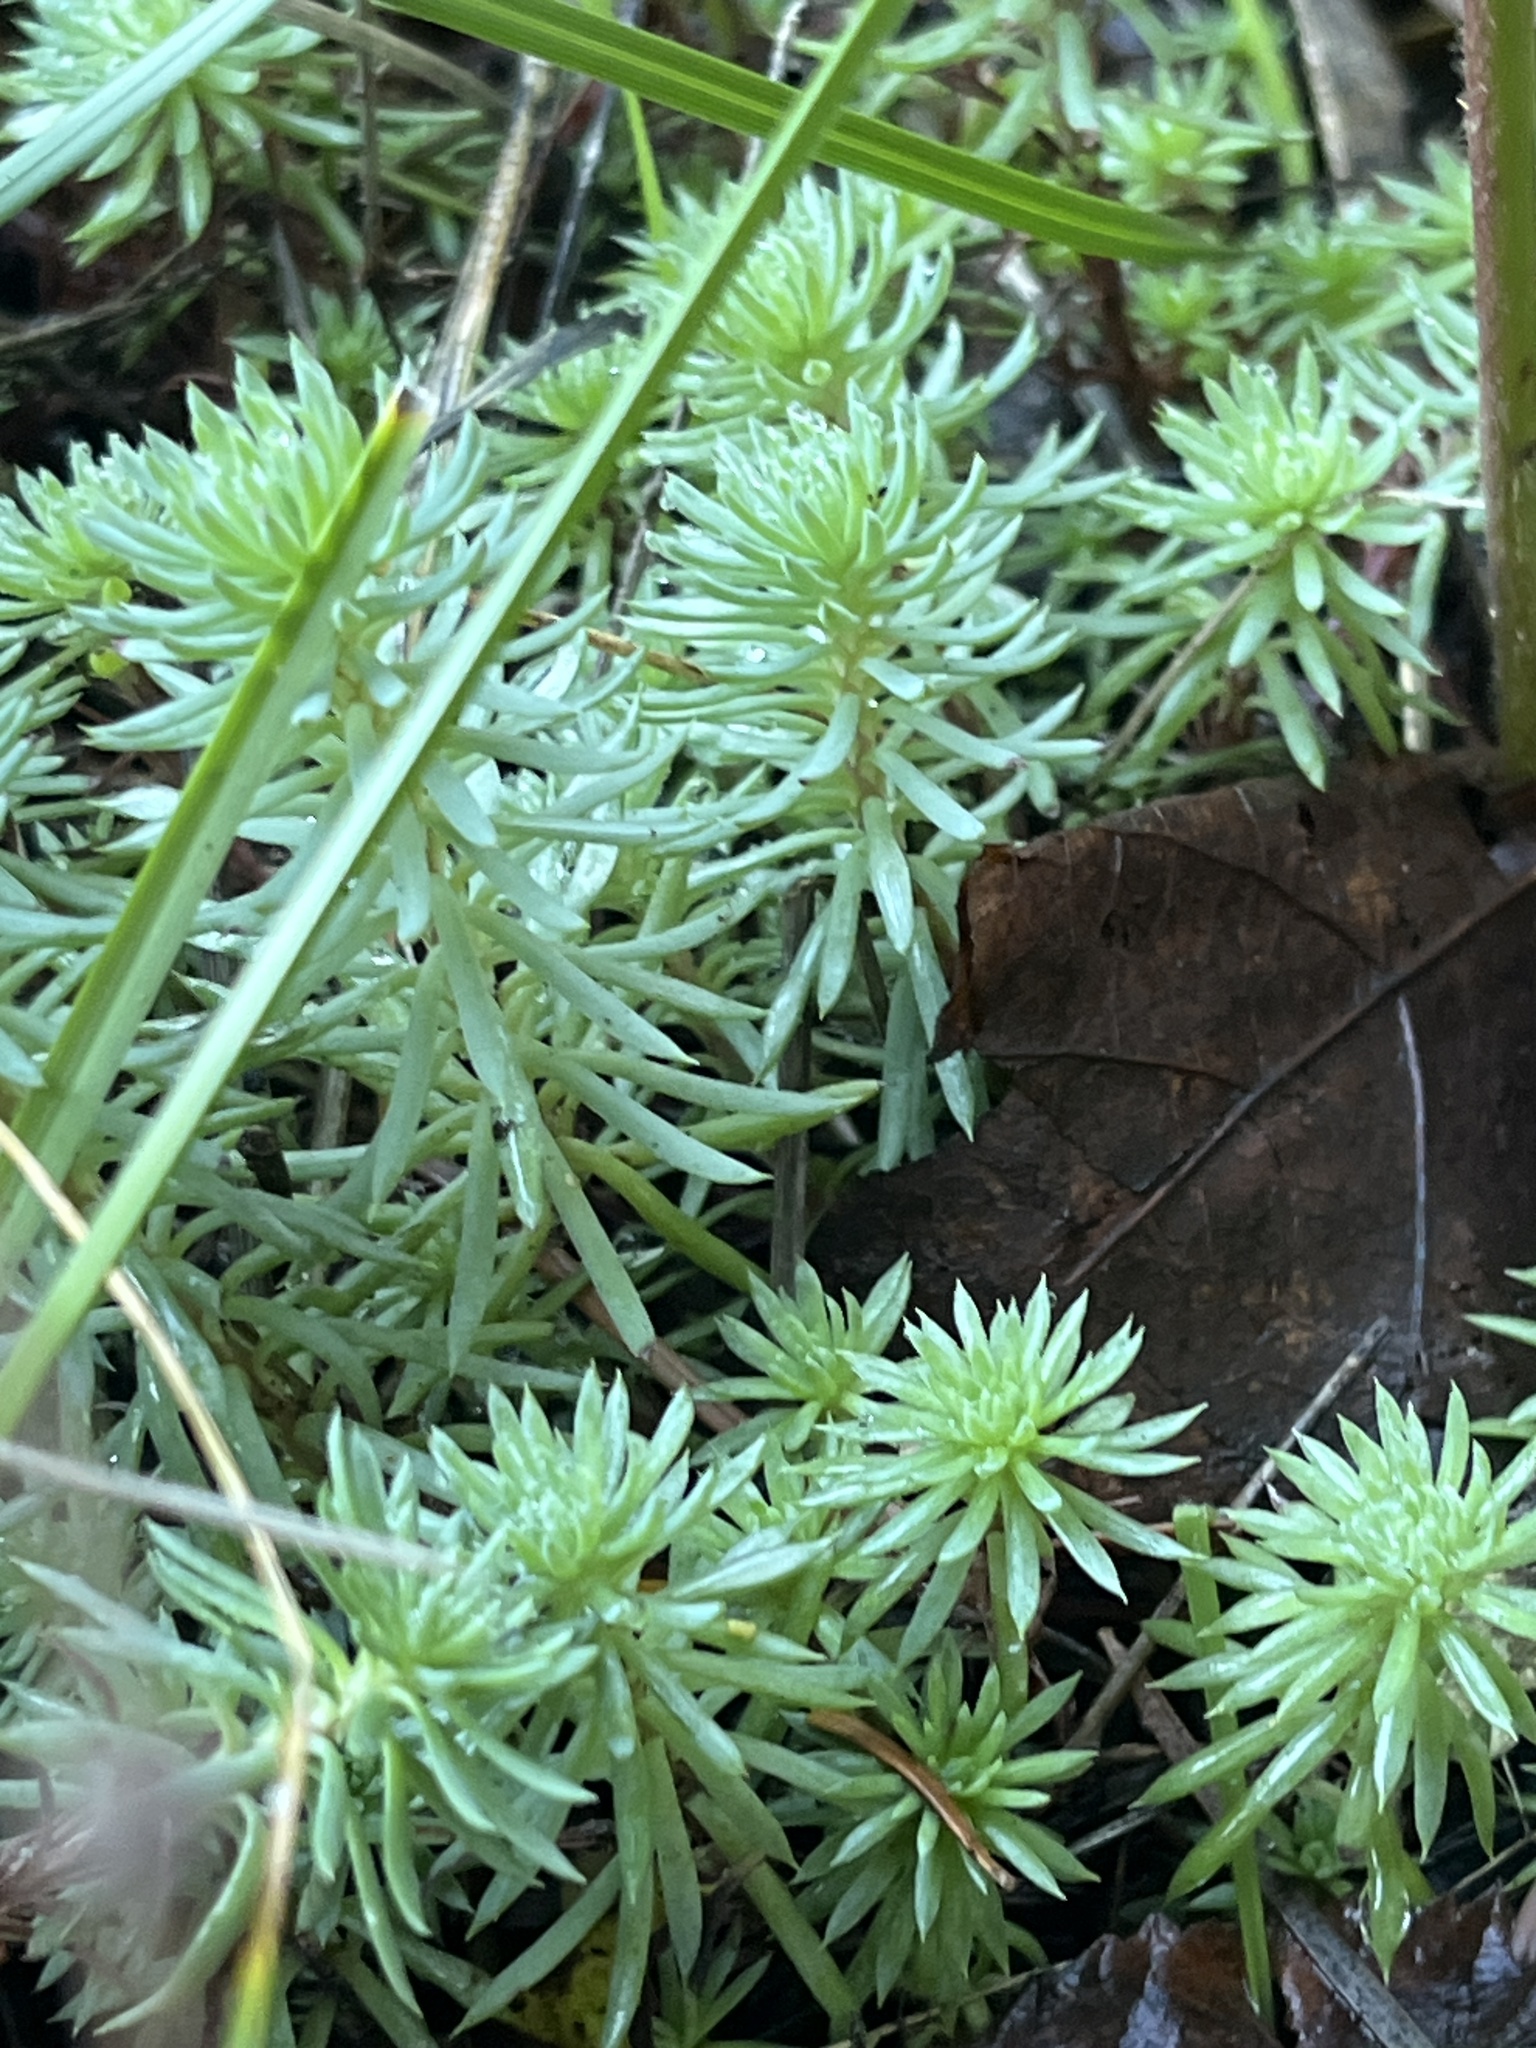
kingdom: Plantae
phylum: Tracheophyta
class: Magnoliopsida
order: Saxifragales
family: Crassulaceae
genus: Petrosedum
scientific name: Petrosedum forsterianum
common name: Forster's stonecrop
